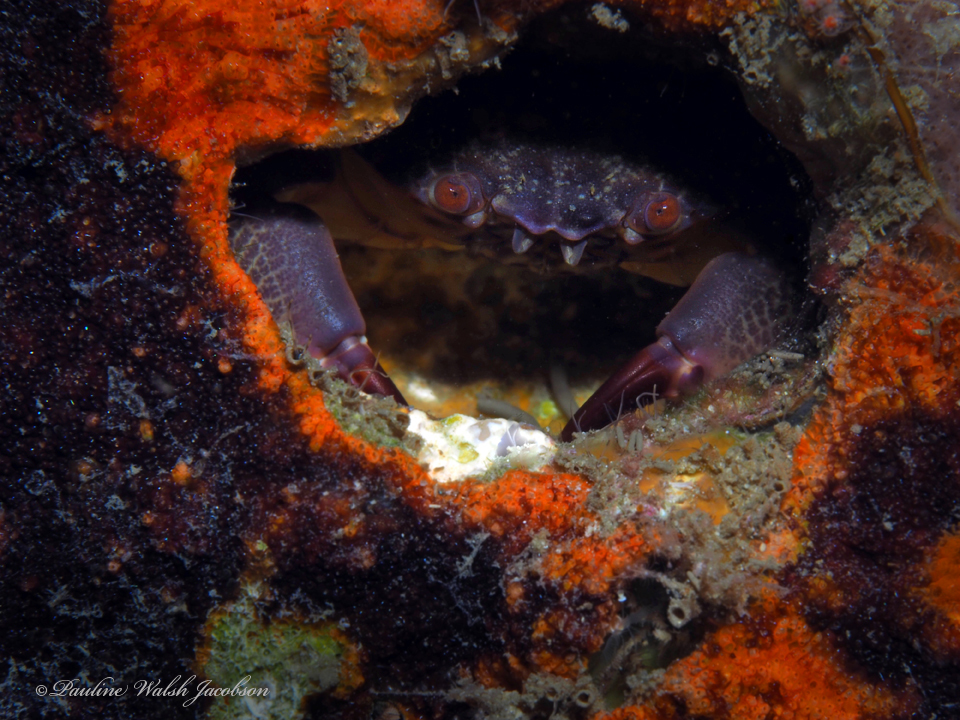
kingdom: Animalia
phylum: Arthropoda
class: Malacostraca
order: Decapoda
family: Menippidae
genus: Menippe
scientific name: Menippe mercenaria
